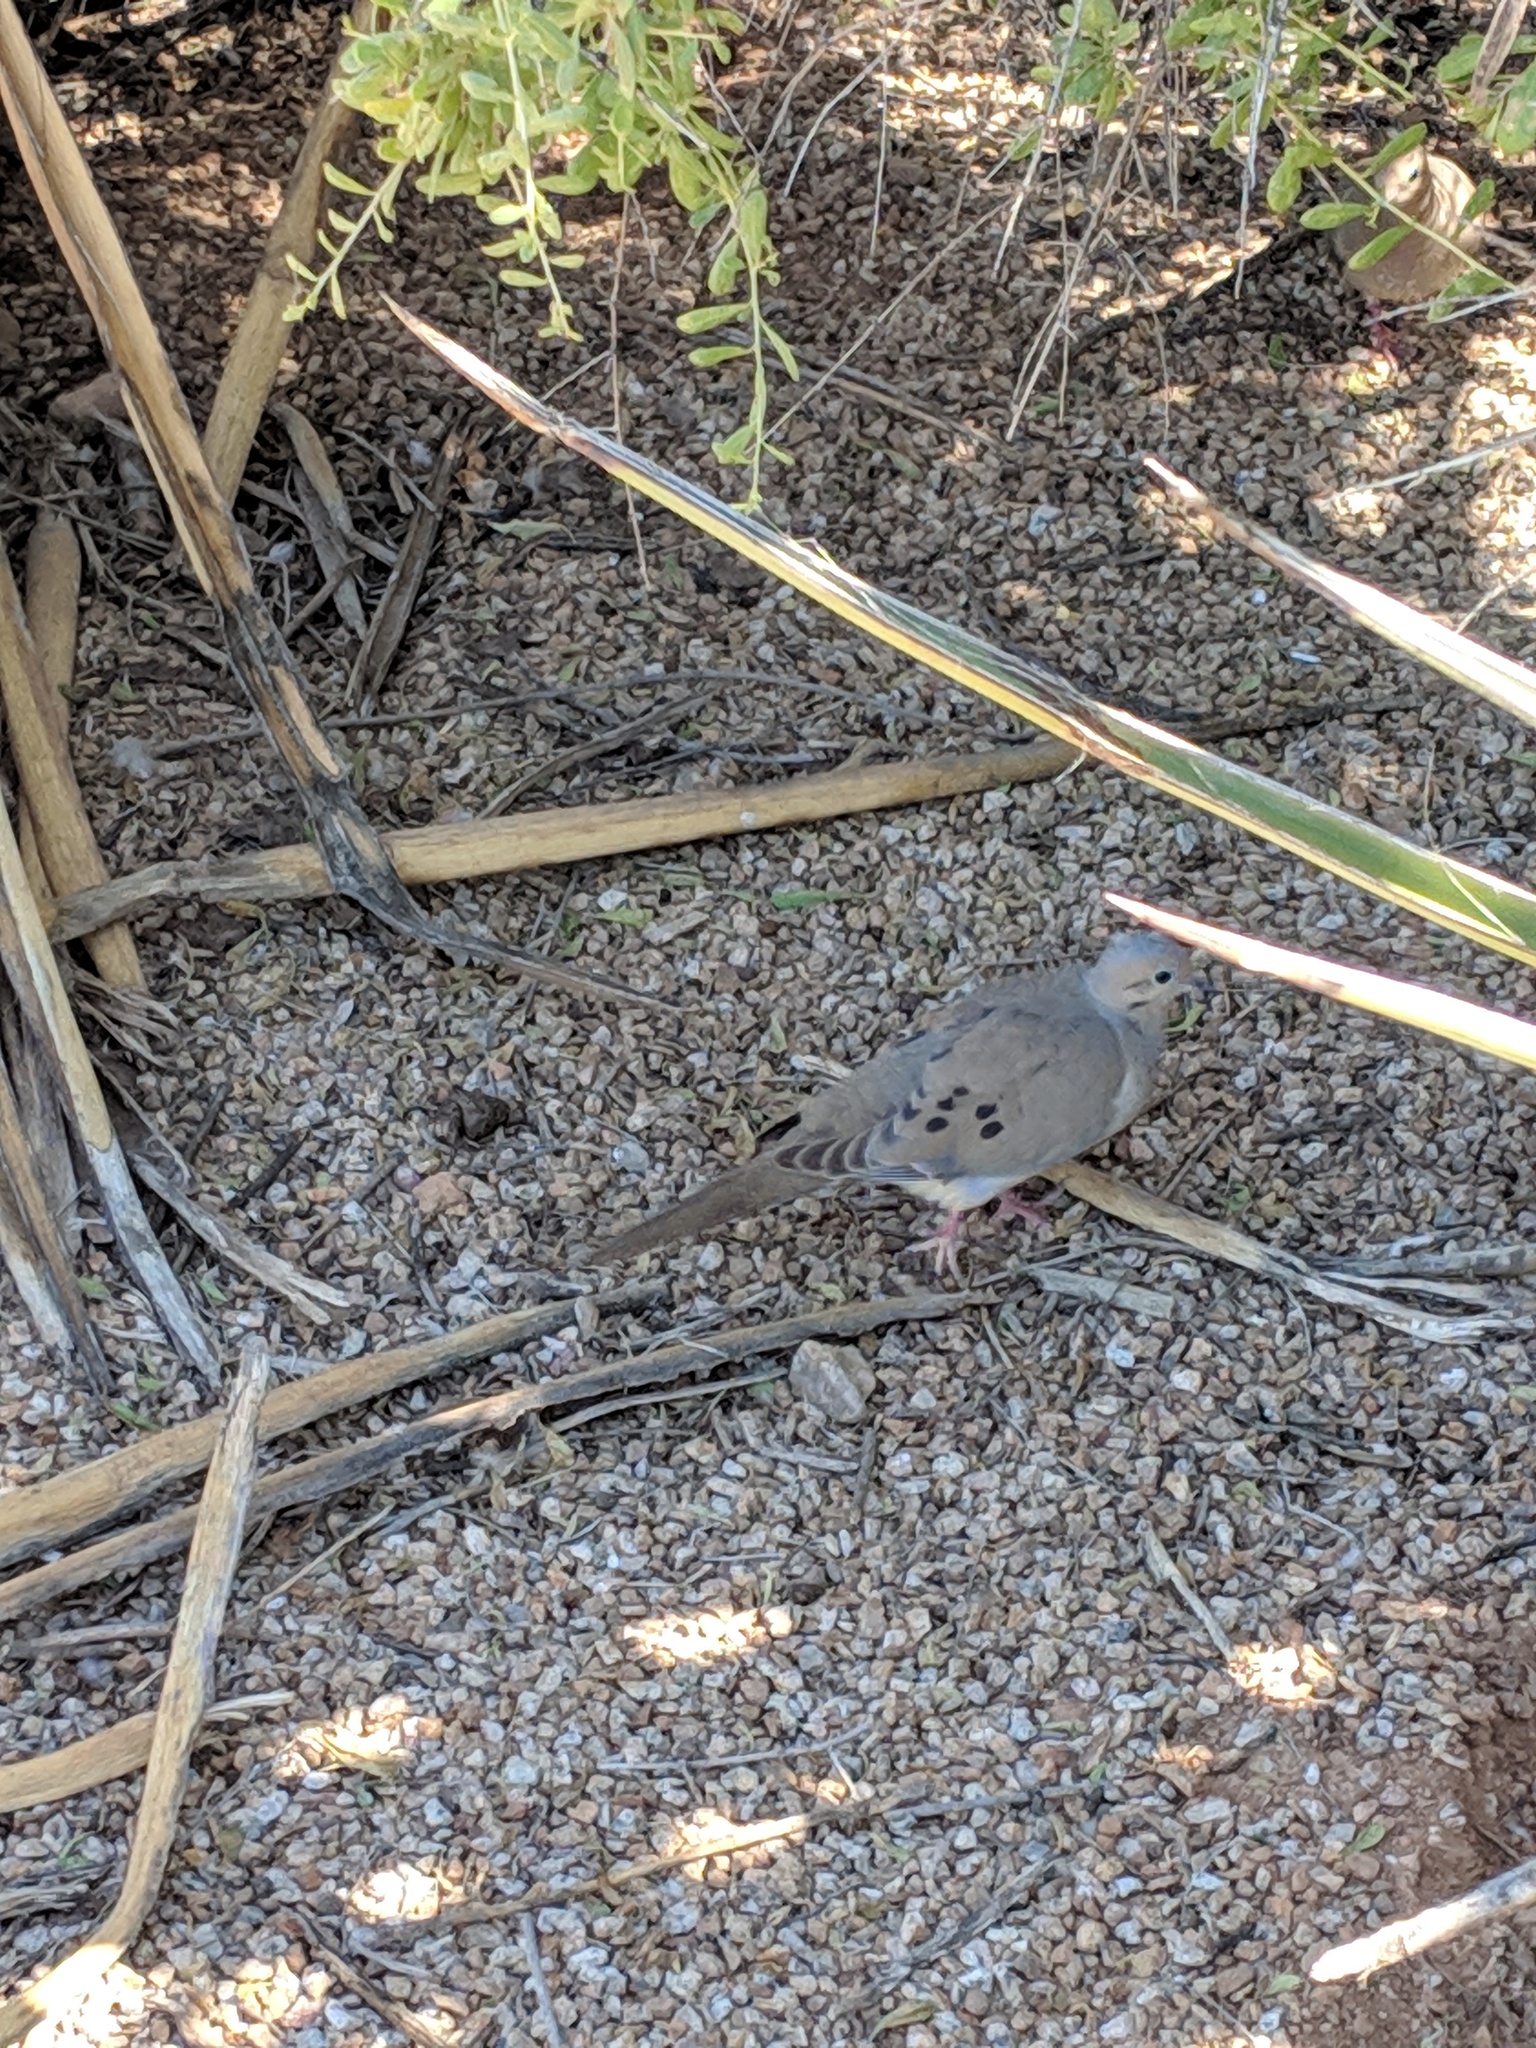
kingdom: Animalia
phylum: Chordata
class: Aves
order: Columbiformes
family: Columbidae
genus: Zenaida
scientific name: Zenaida macroura
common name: Mourning dove
